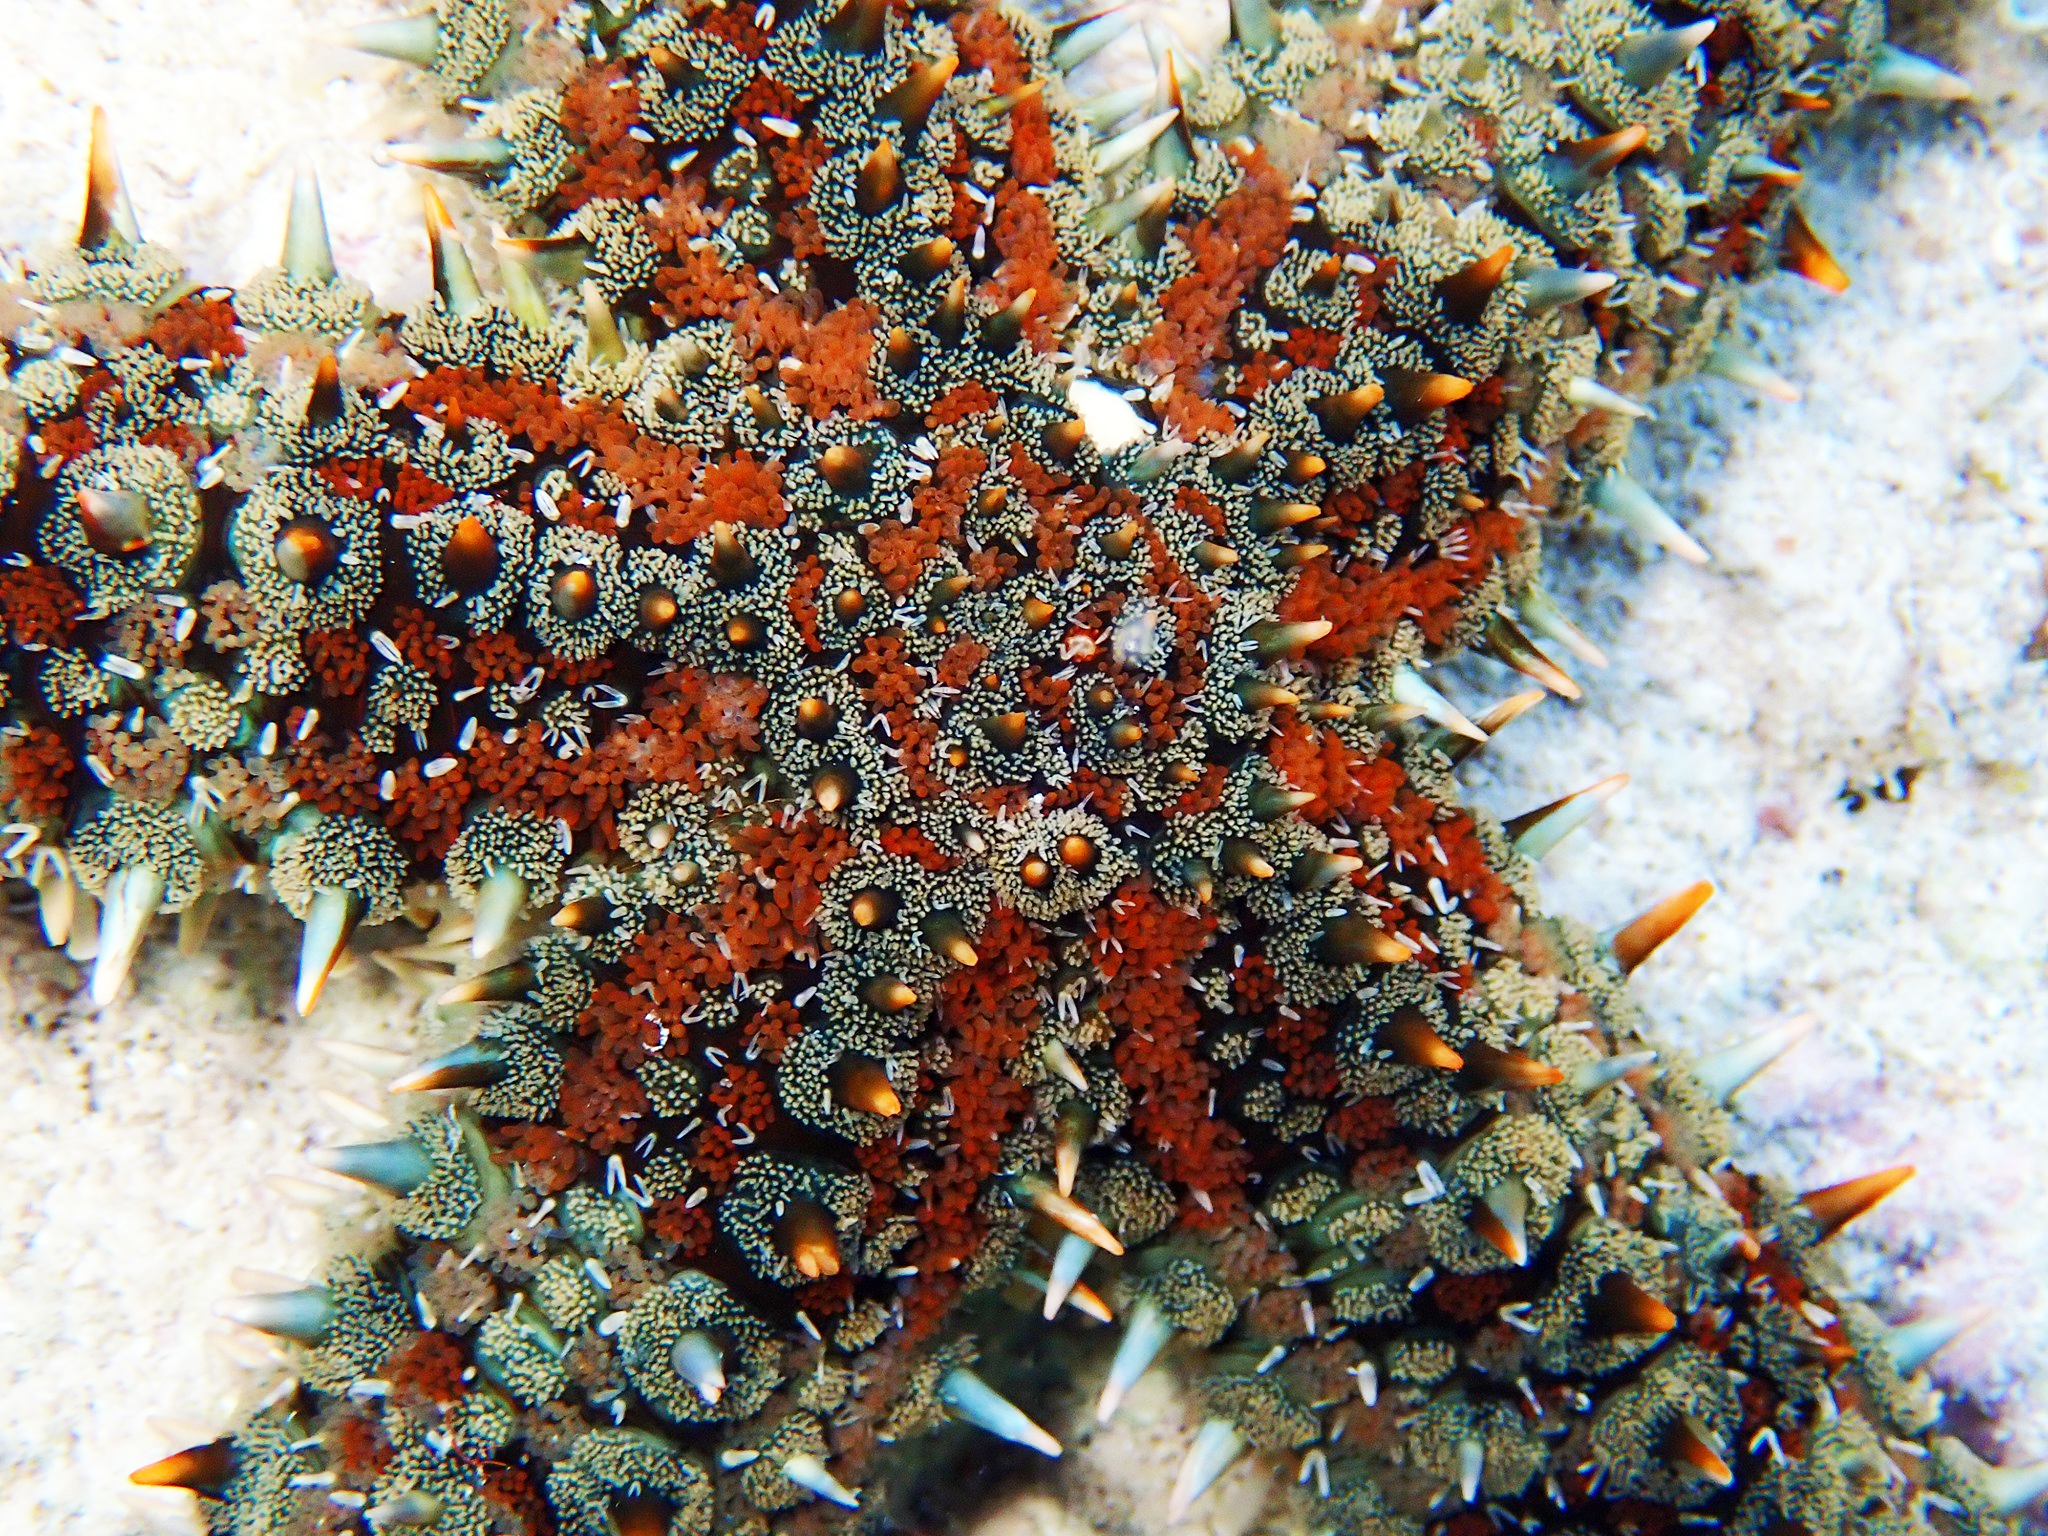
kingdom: Animalia
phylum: Echinodermata
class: Asteroidea
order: Forcipulatida
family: Asteriidae
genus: Marthasterias
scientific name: Marthasterias glacialis
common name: Spiny starfish
